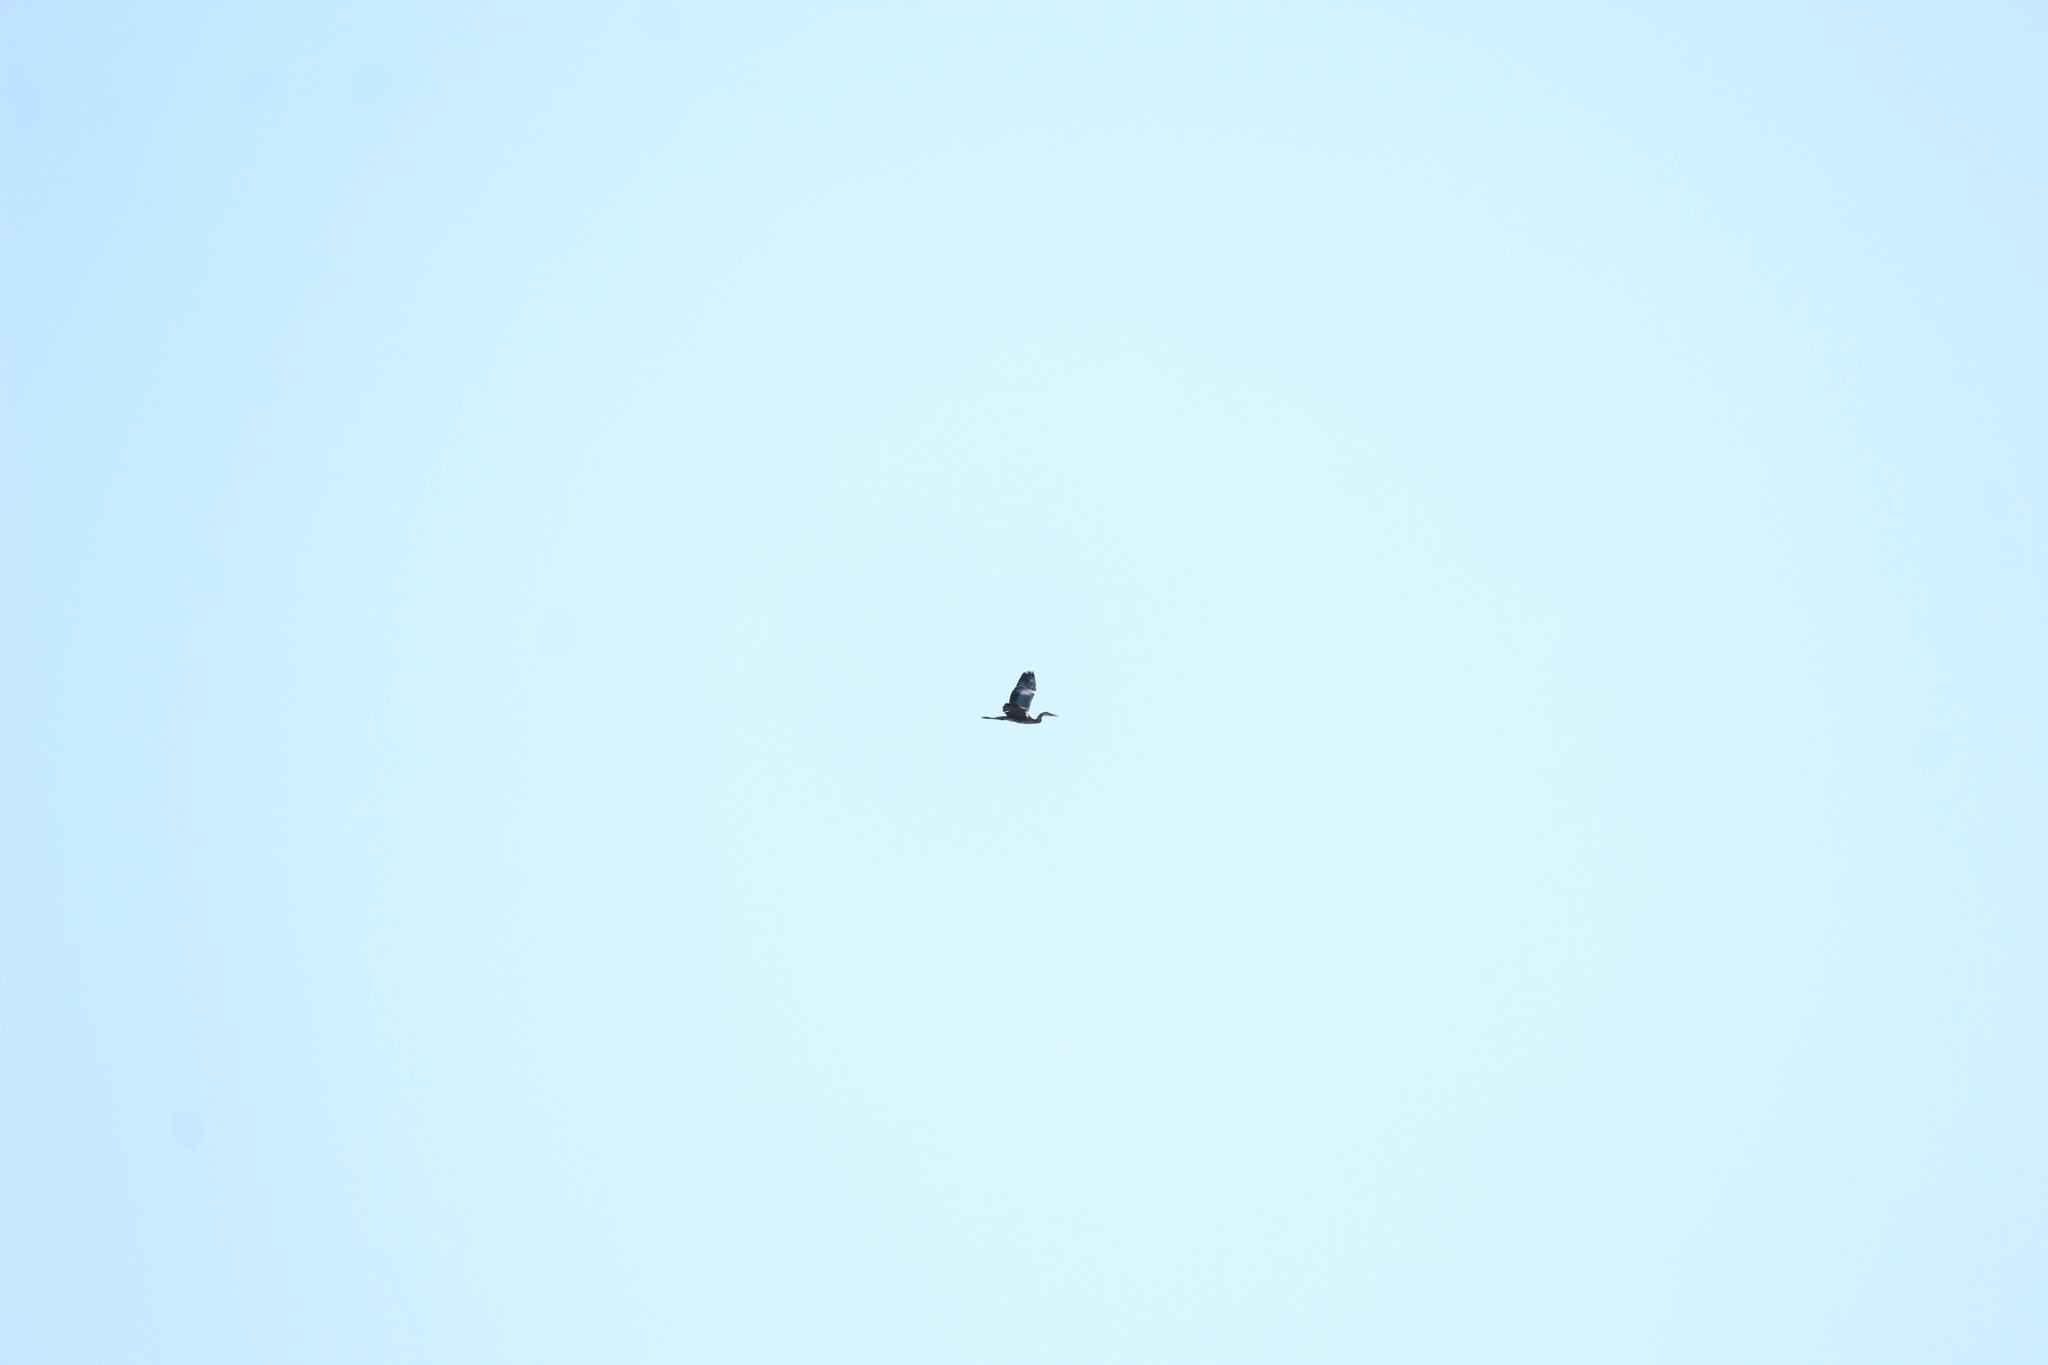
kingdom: Animalia
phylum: Chordata
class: Aves
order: Pelecaniformes
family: Ardeidae
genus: Ardea
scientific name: Ardea cinerea
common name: Grey heron
